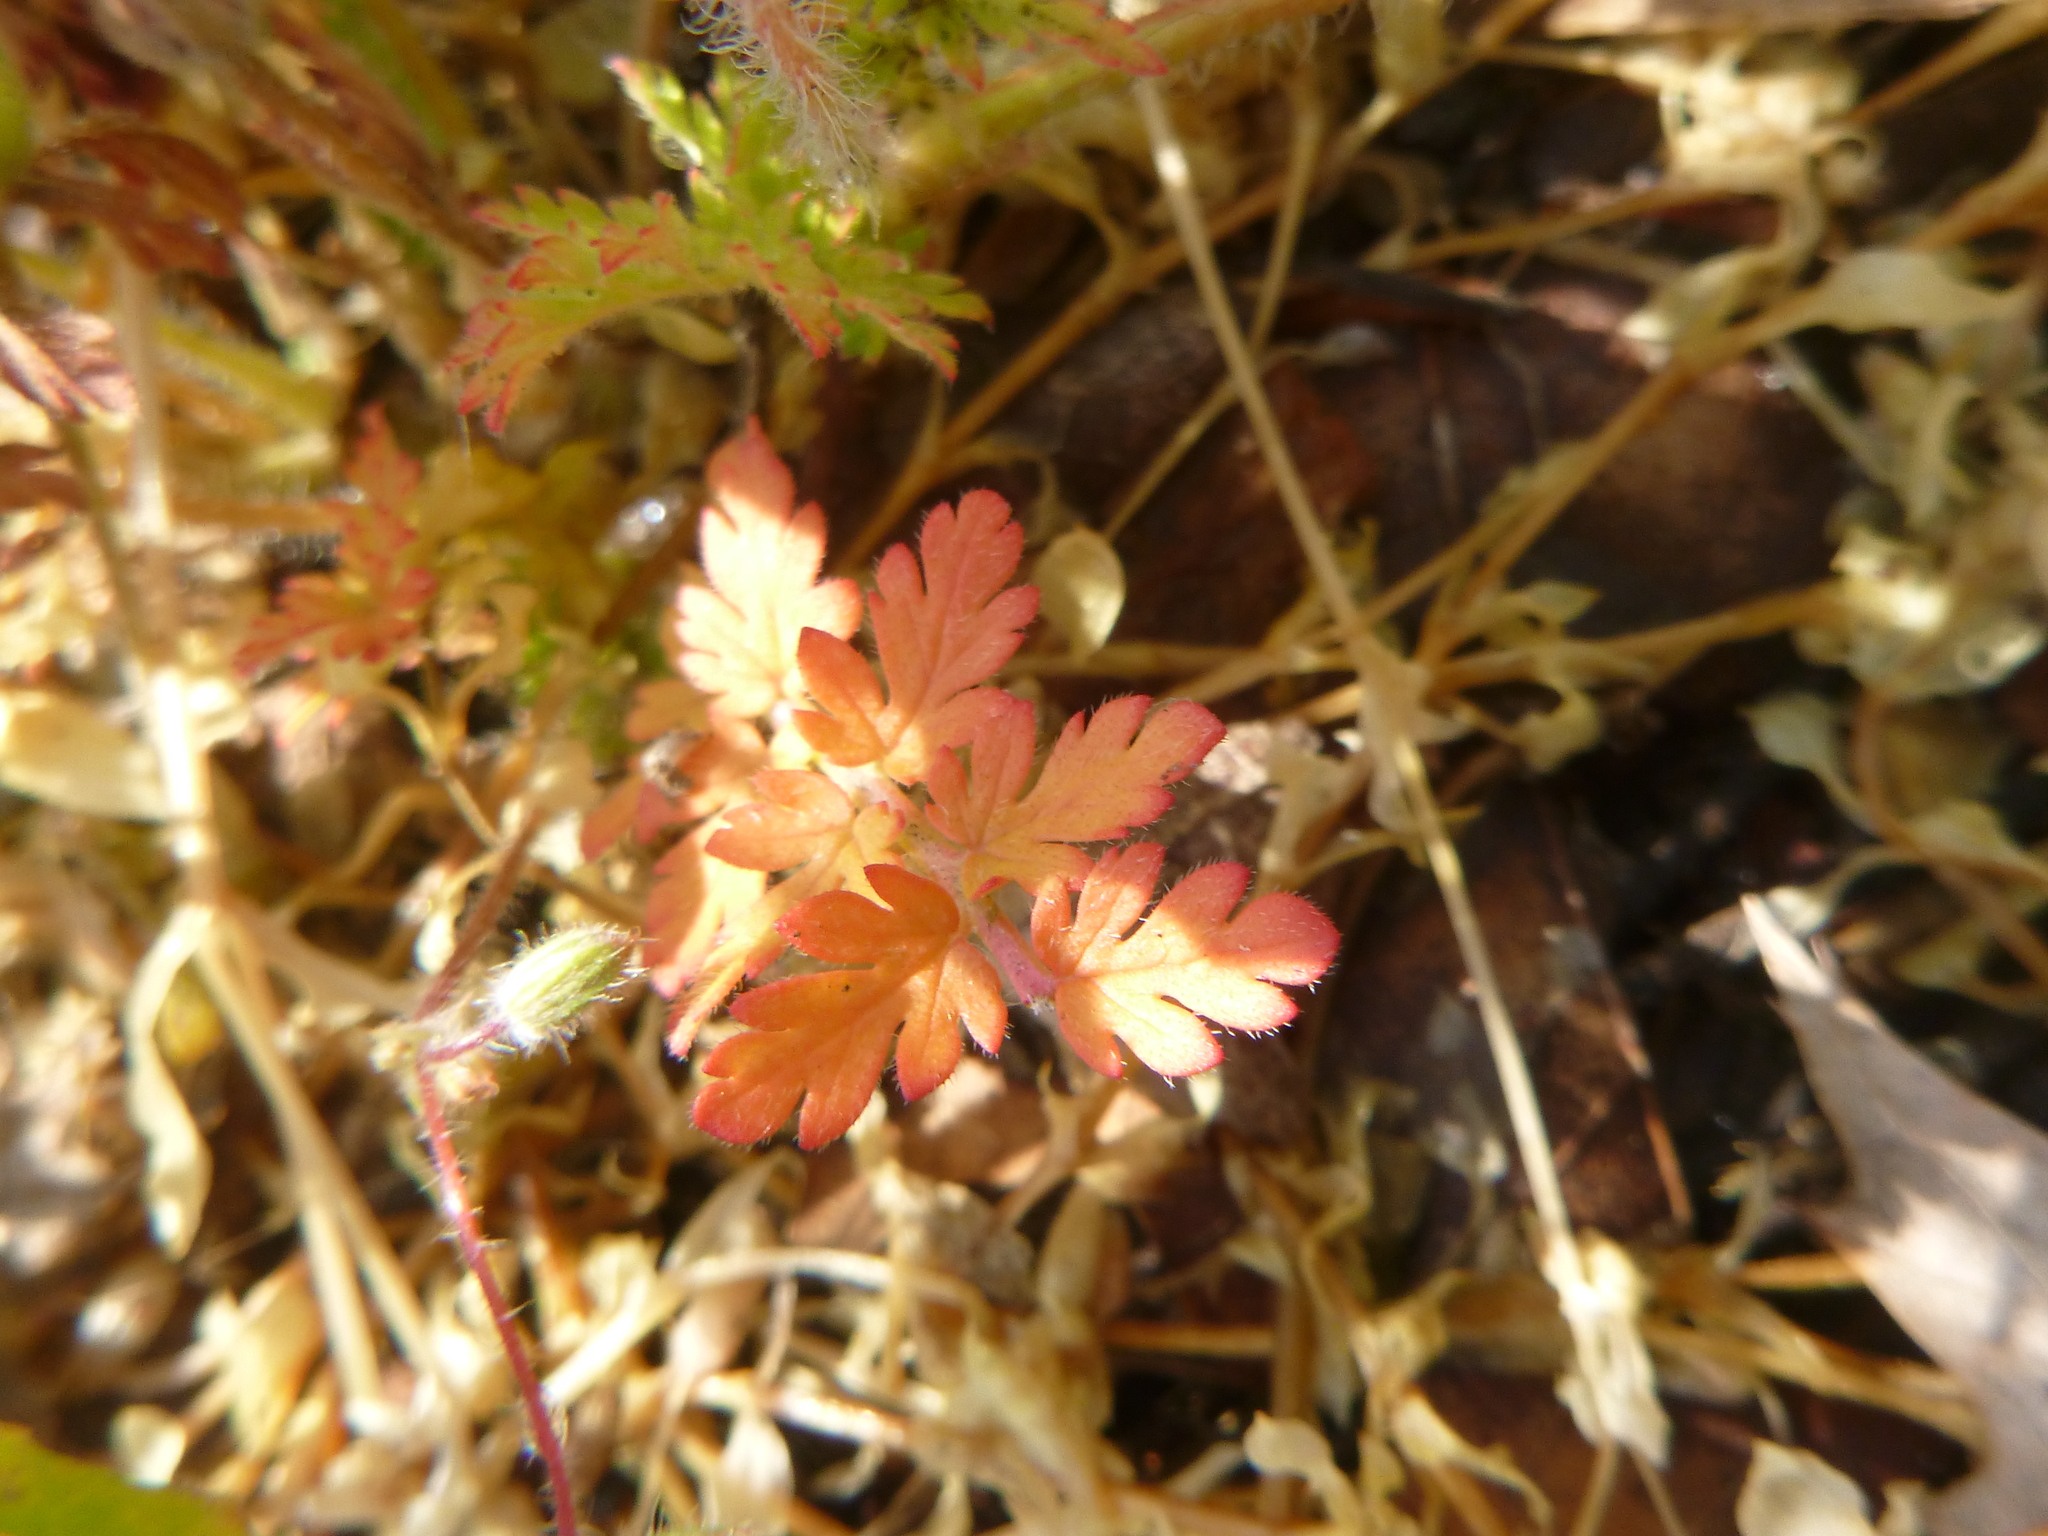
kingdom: Plantae
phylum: Tracheophyta
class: Magnoliopsida
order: Geraniales
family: Geraniaceae
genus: Erodium
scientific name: Erodium cicutarium
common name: Common stork's-bill
